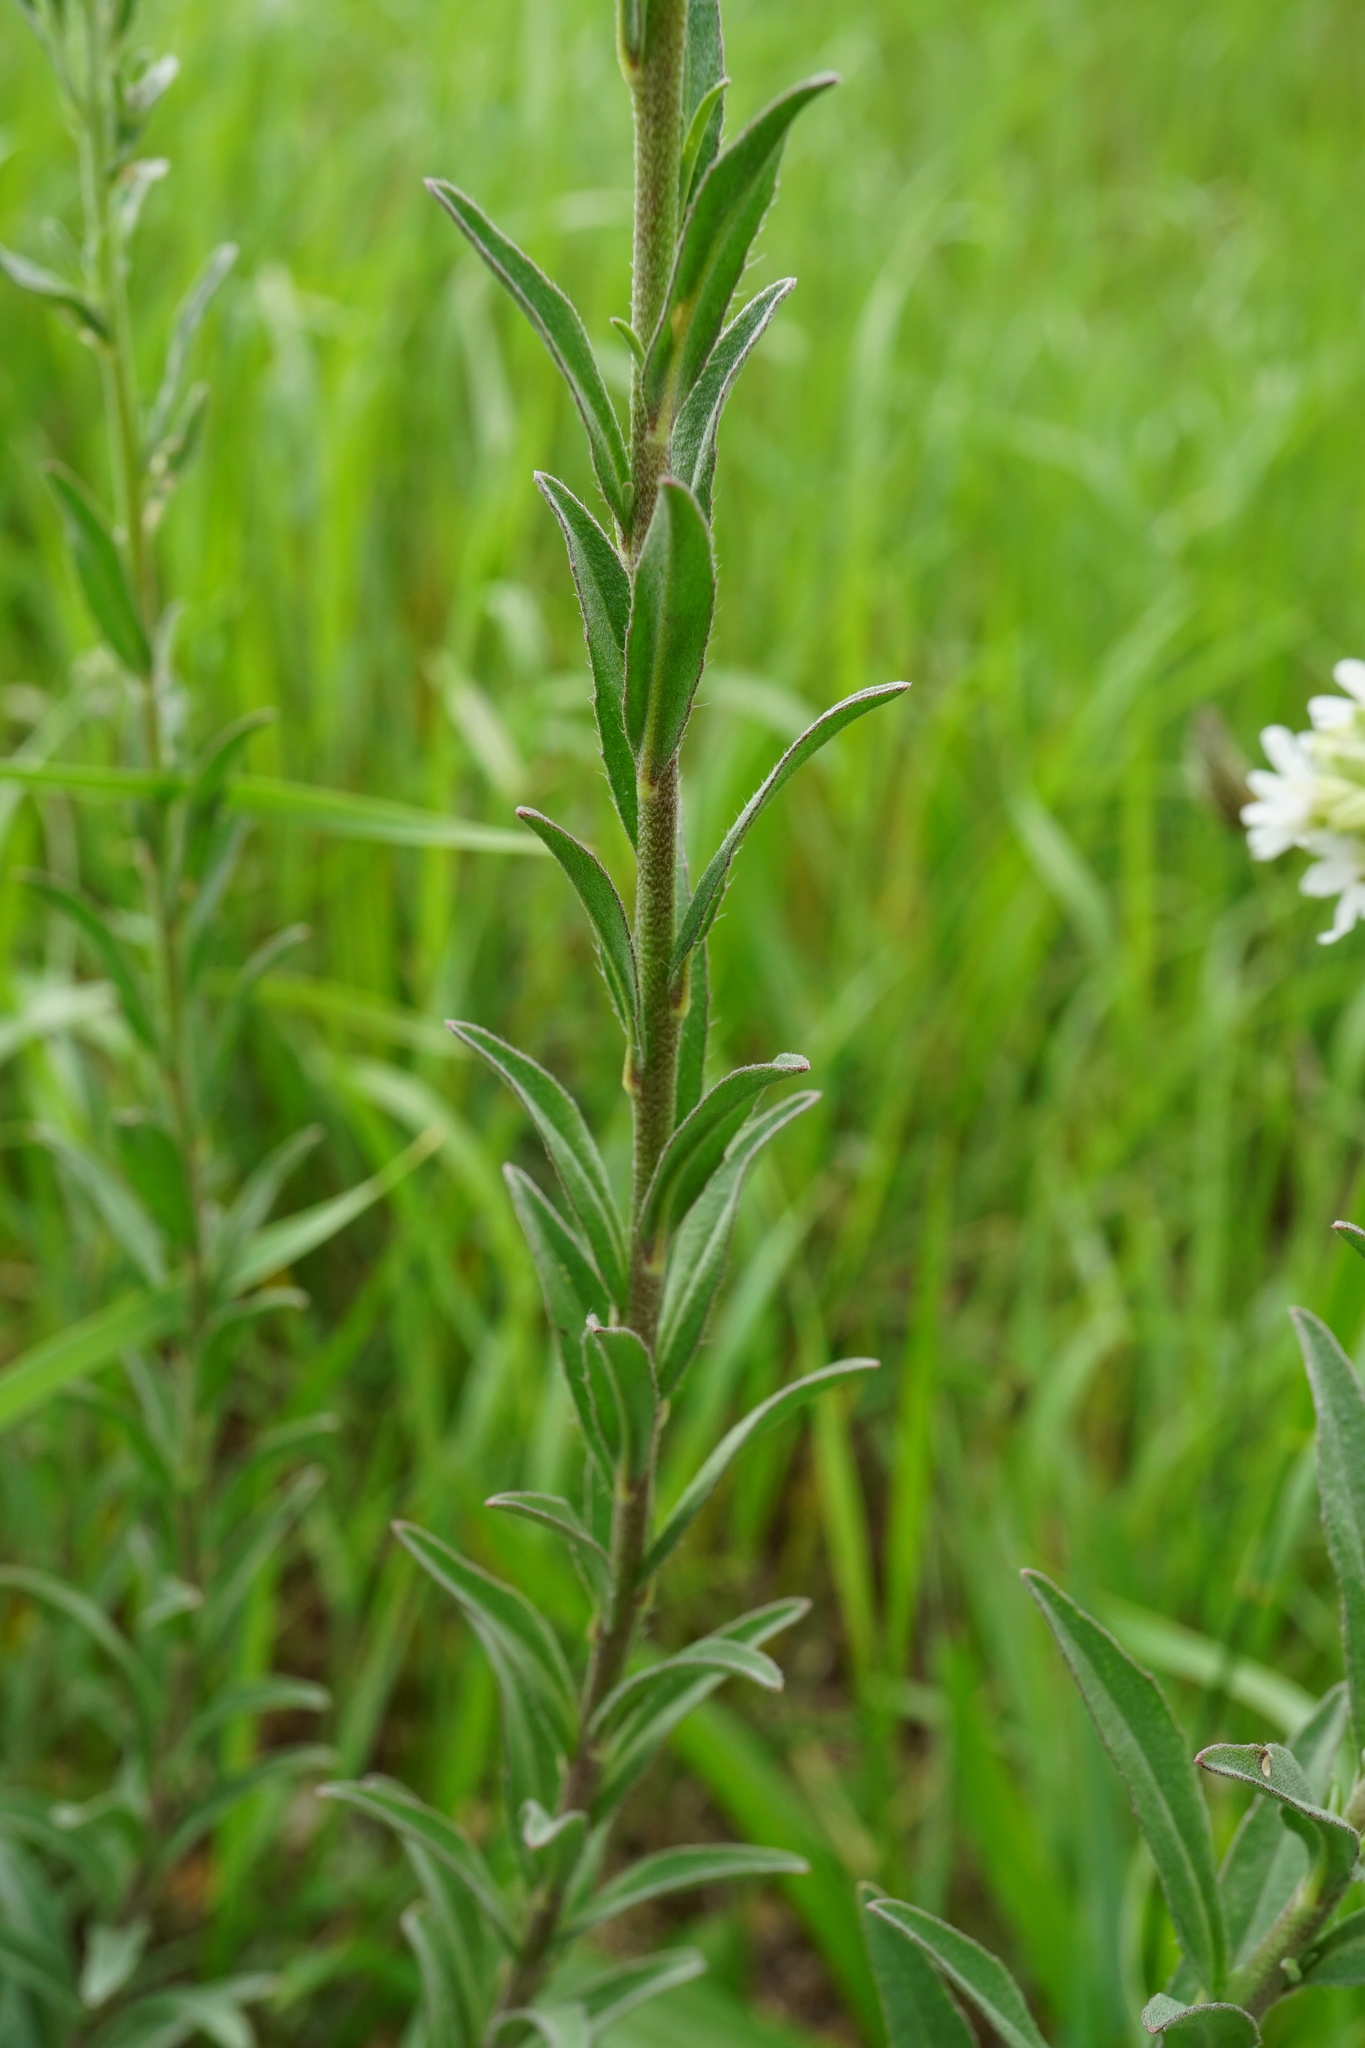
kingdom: Plantae
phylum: Tracheophyta
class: Magnoliopsida
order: Brassicales
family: Brassicaceae
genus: Berteroa
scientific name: Berteroa incana
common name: Hoary alison
